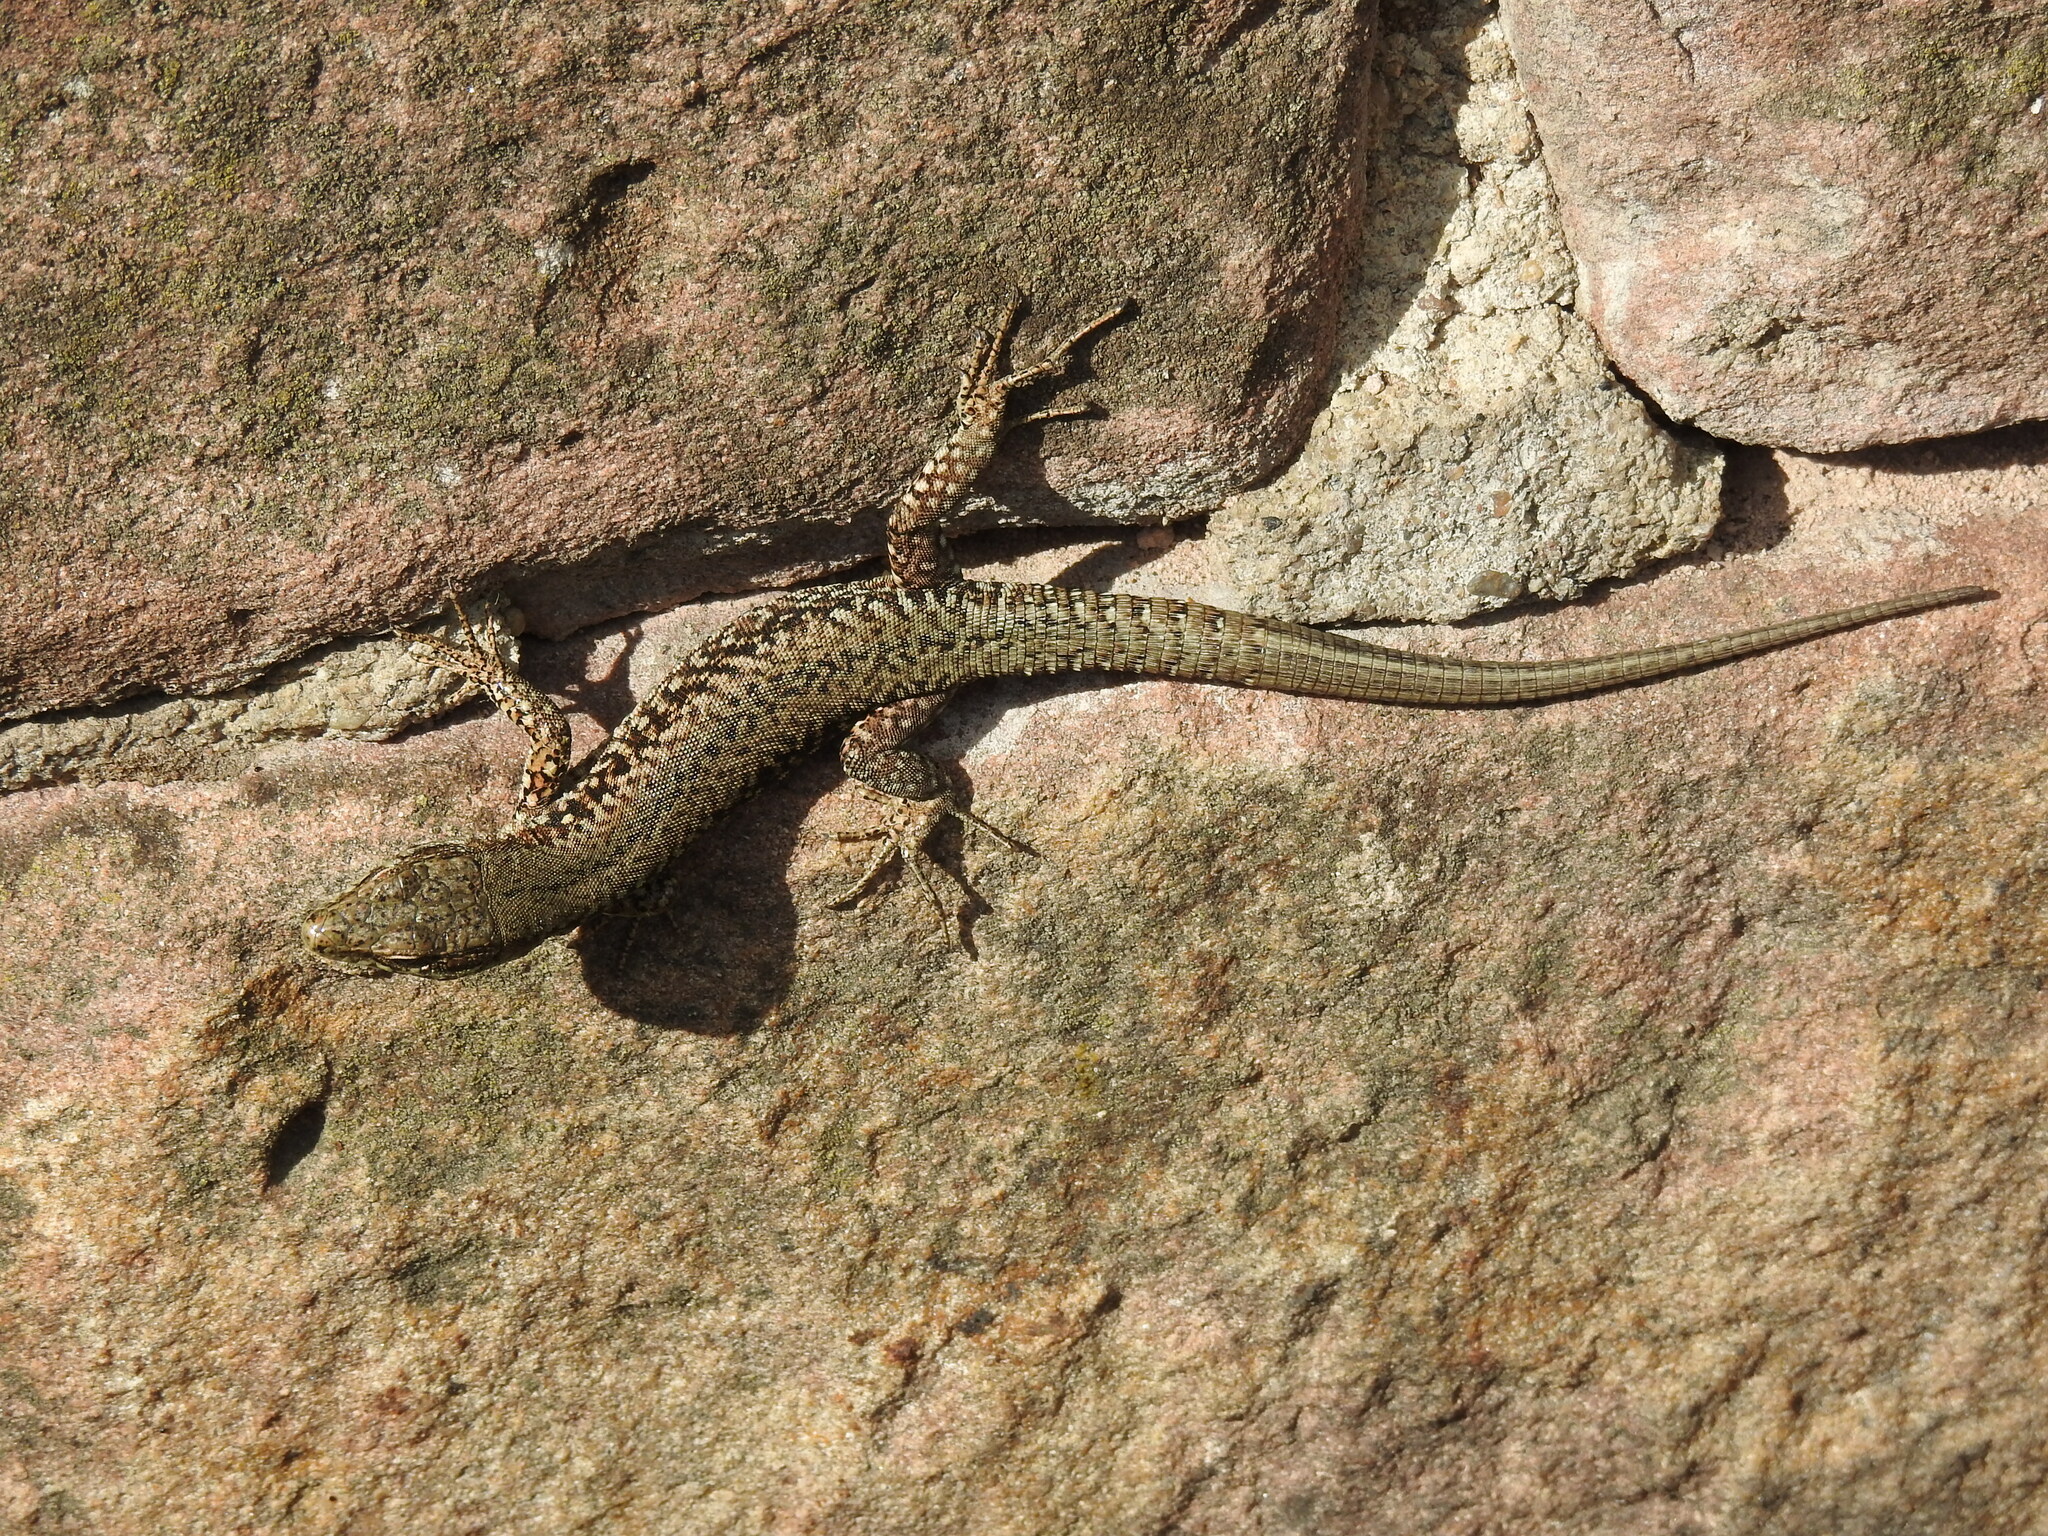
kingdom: Animalia
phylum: Chordata
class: Squamata
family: Lacertidae
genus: Podarcis
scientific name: Podarcis muralis
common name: Common wall lizard
